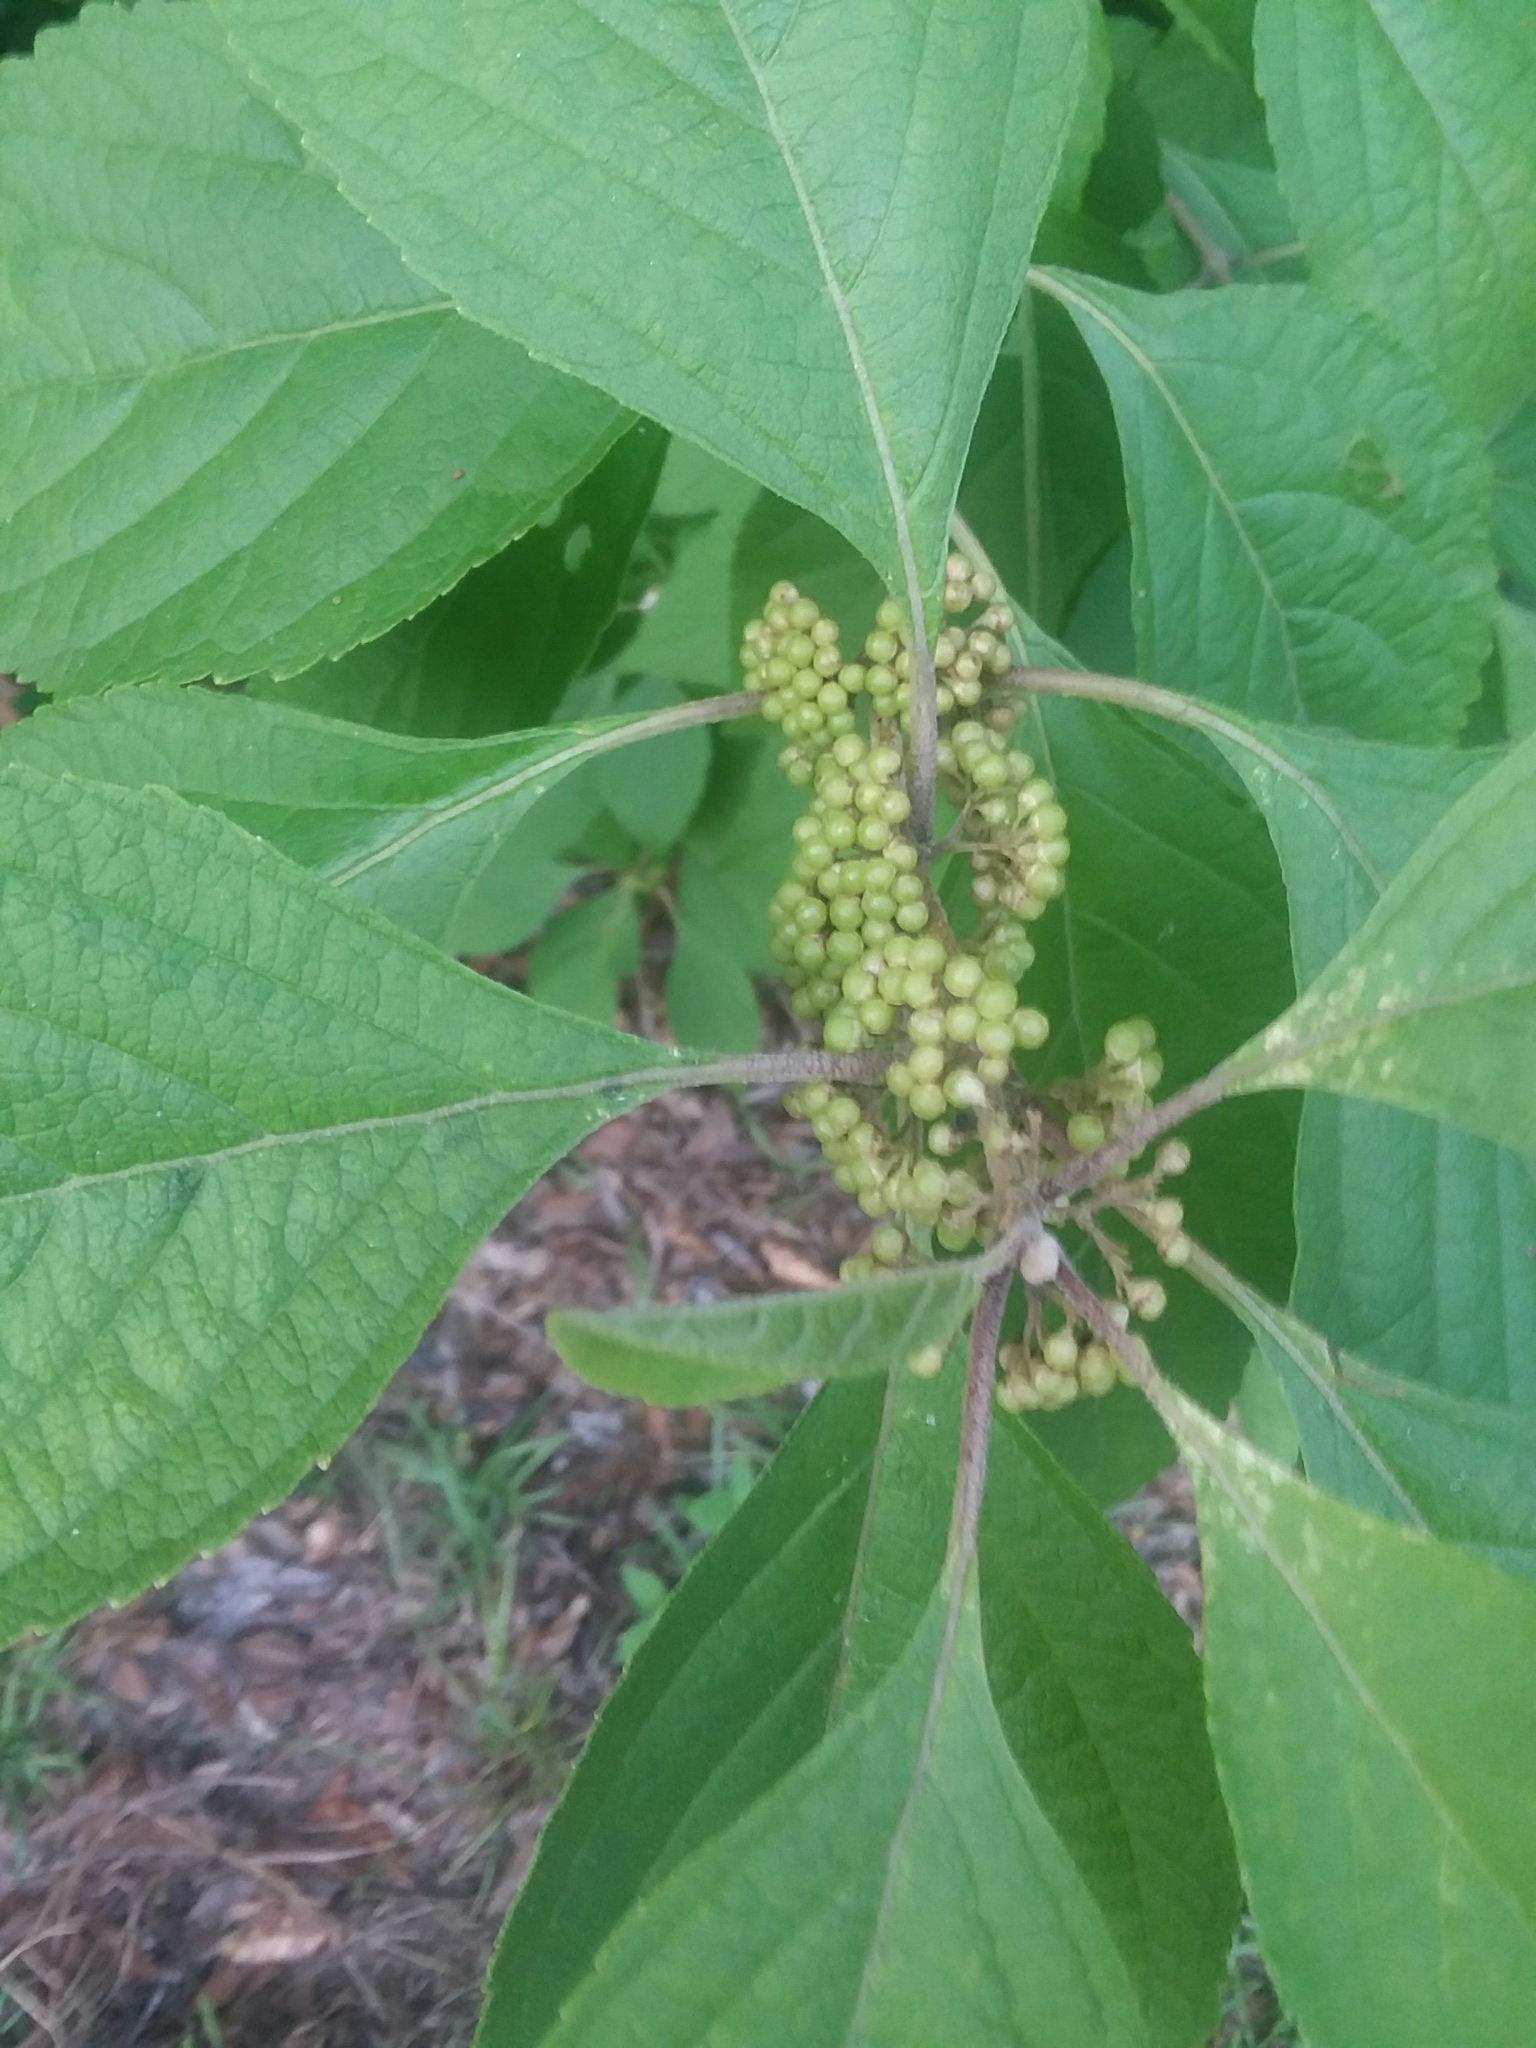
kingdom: Plantae
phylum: Tracheophyta
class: Magnoliopsida
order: Lamiales
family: Lamiaceae
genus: Callicarpa
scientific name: Callicarpa americana
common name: American beautyberry
